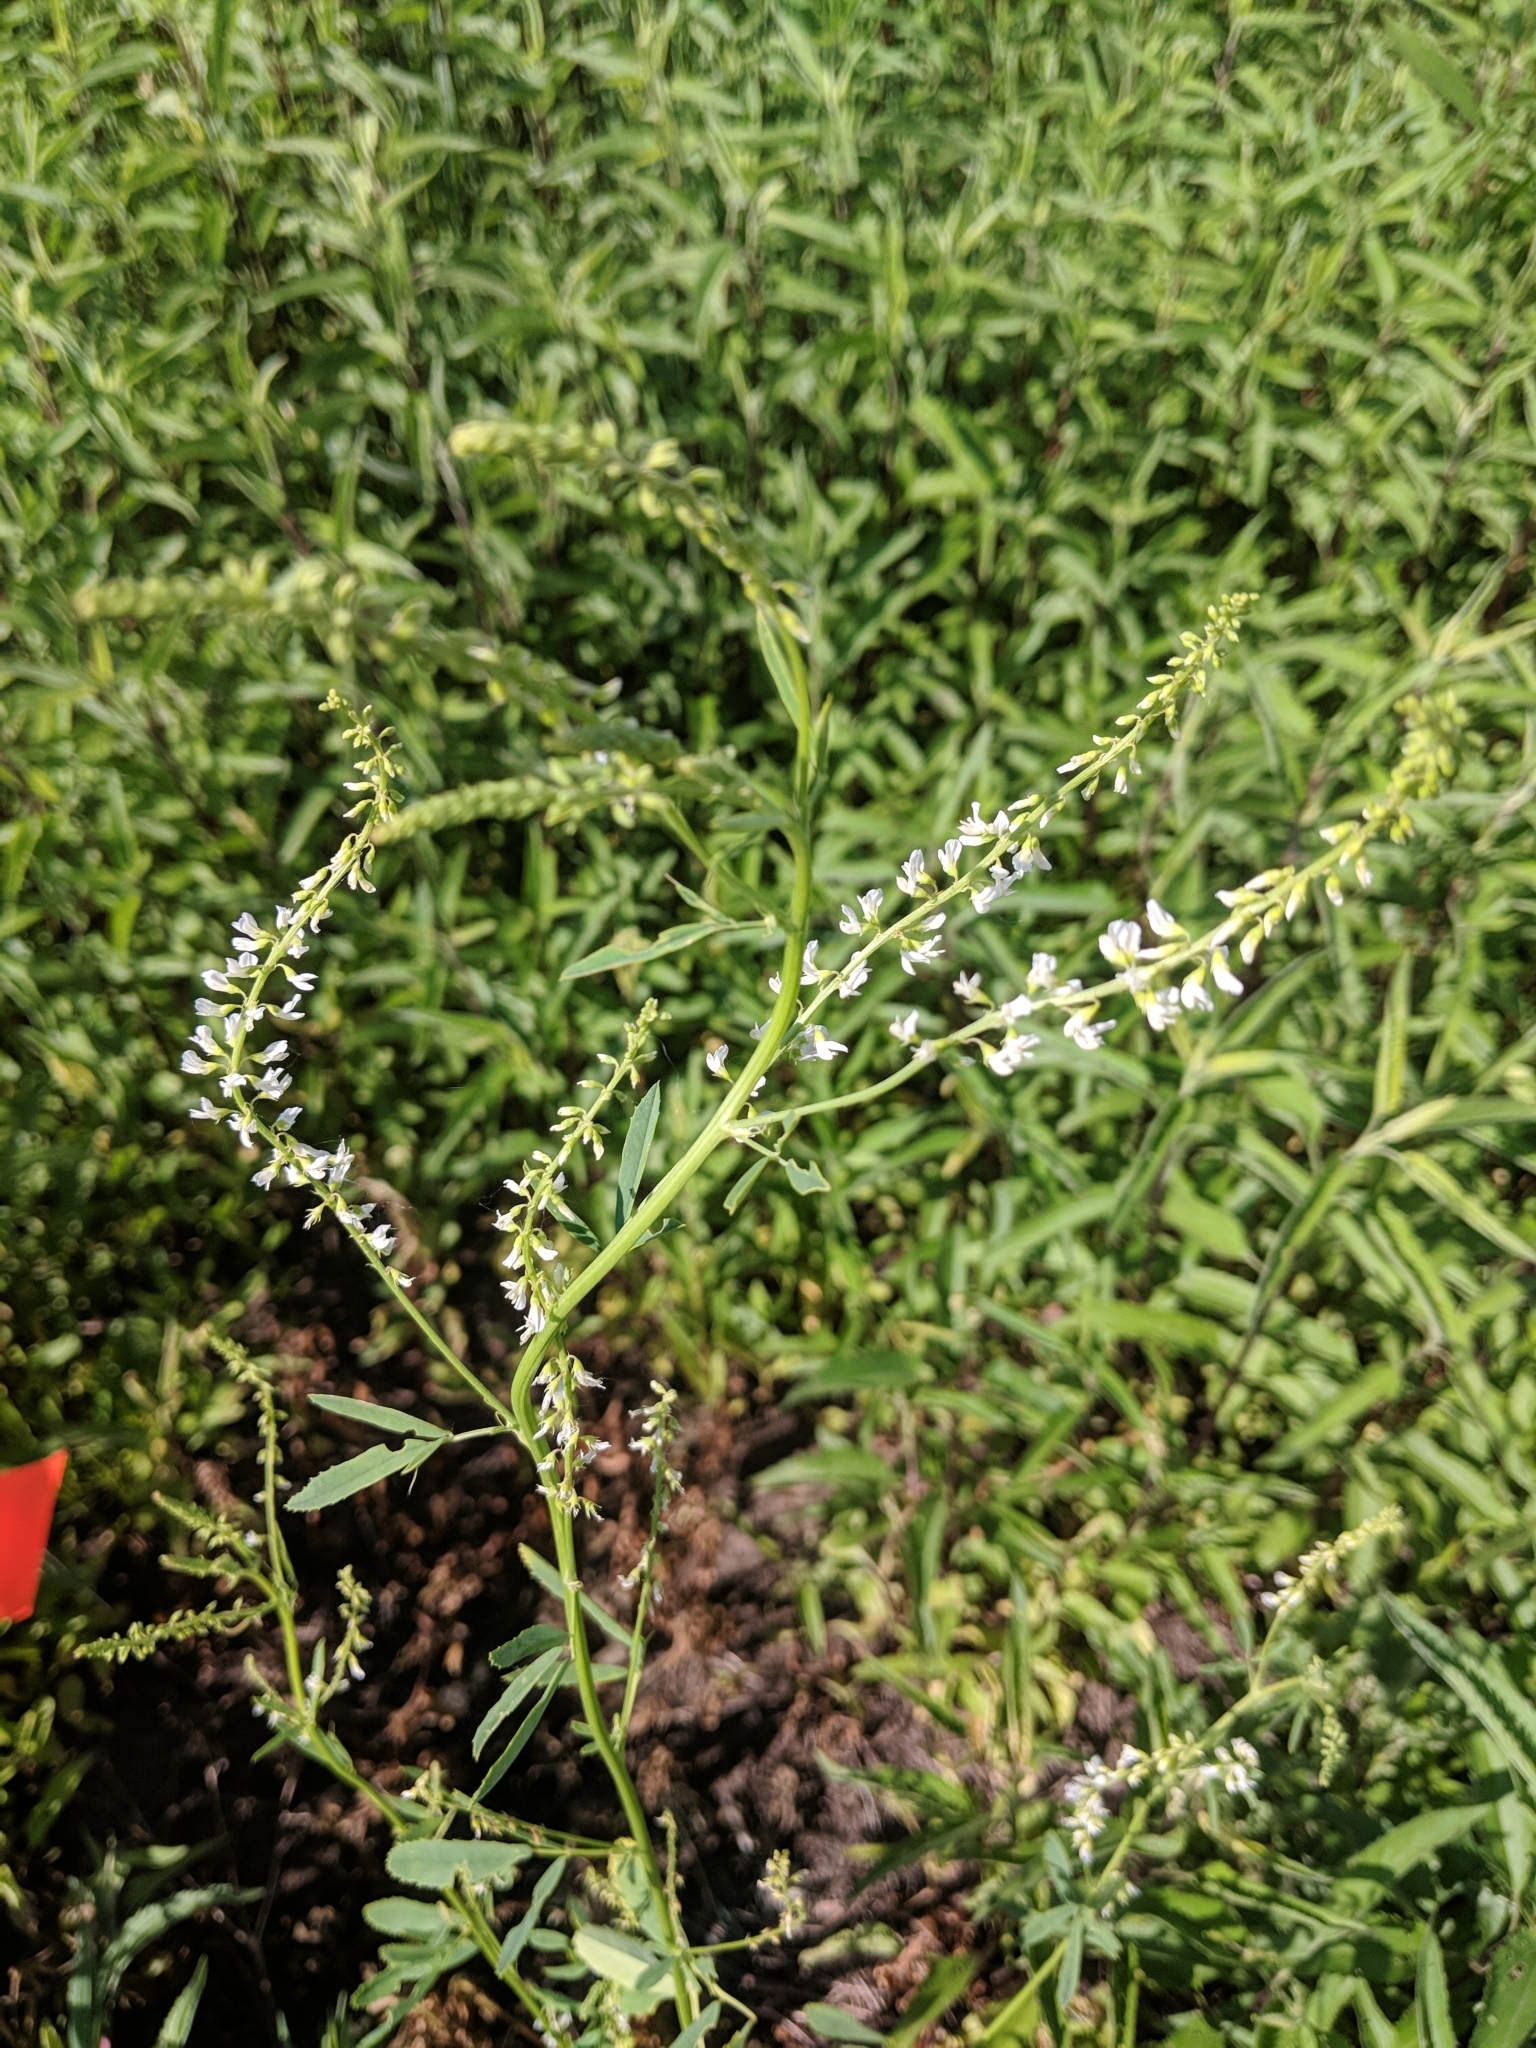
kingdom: Plantae
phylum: Tracheophyta
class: Magnoliopsida
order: Fabales
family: Fabaceae
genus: Melilotus
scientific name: Melilotus albus
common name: White melilot
